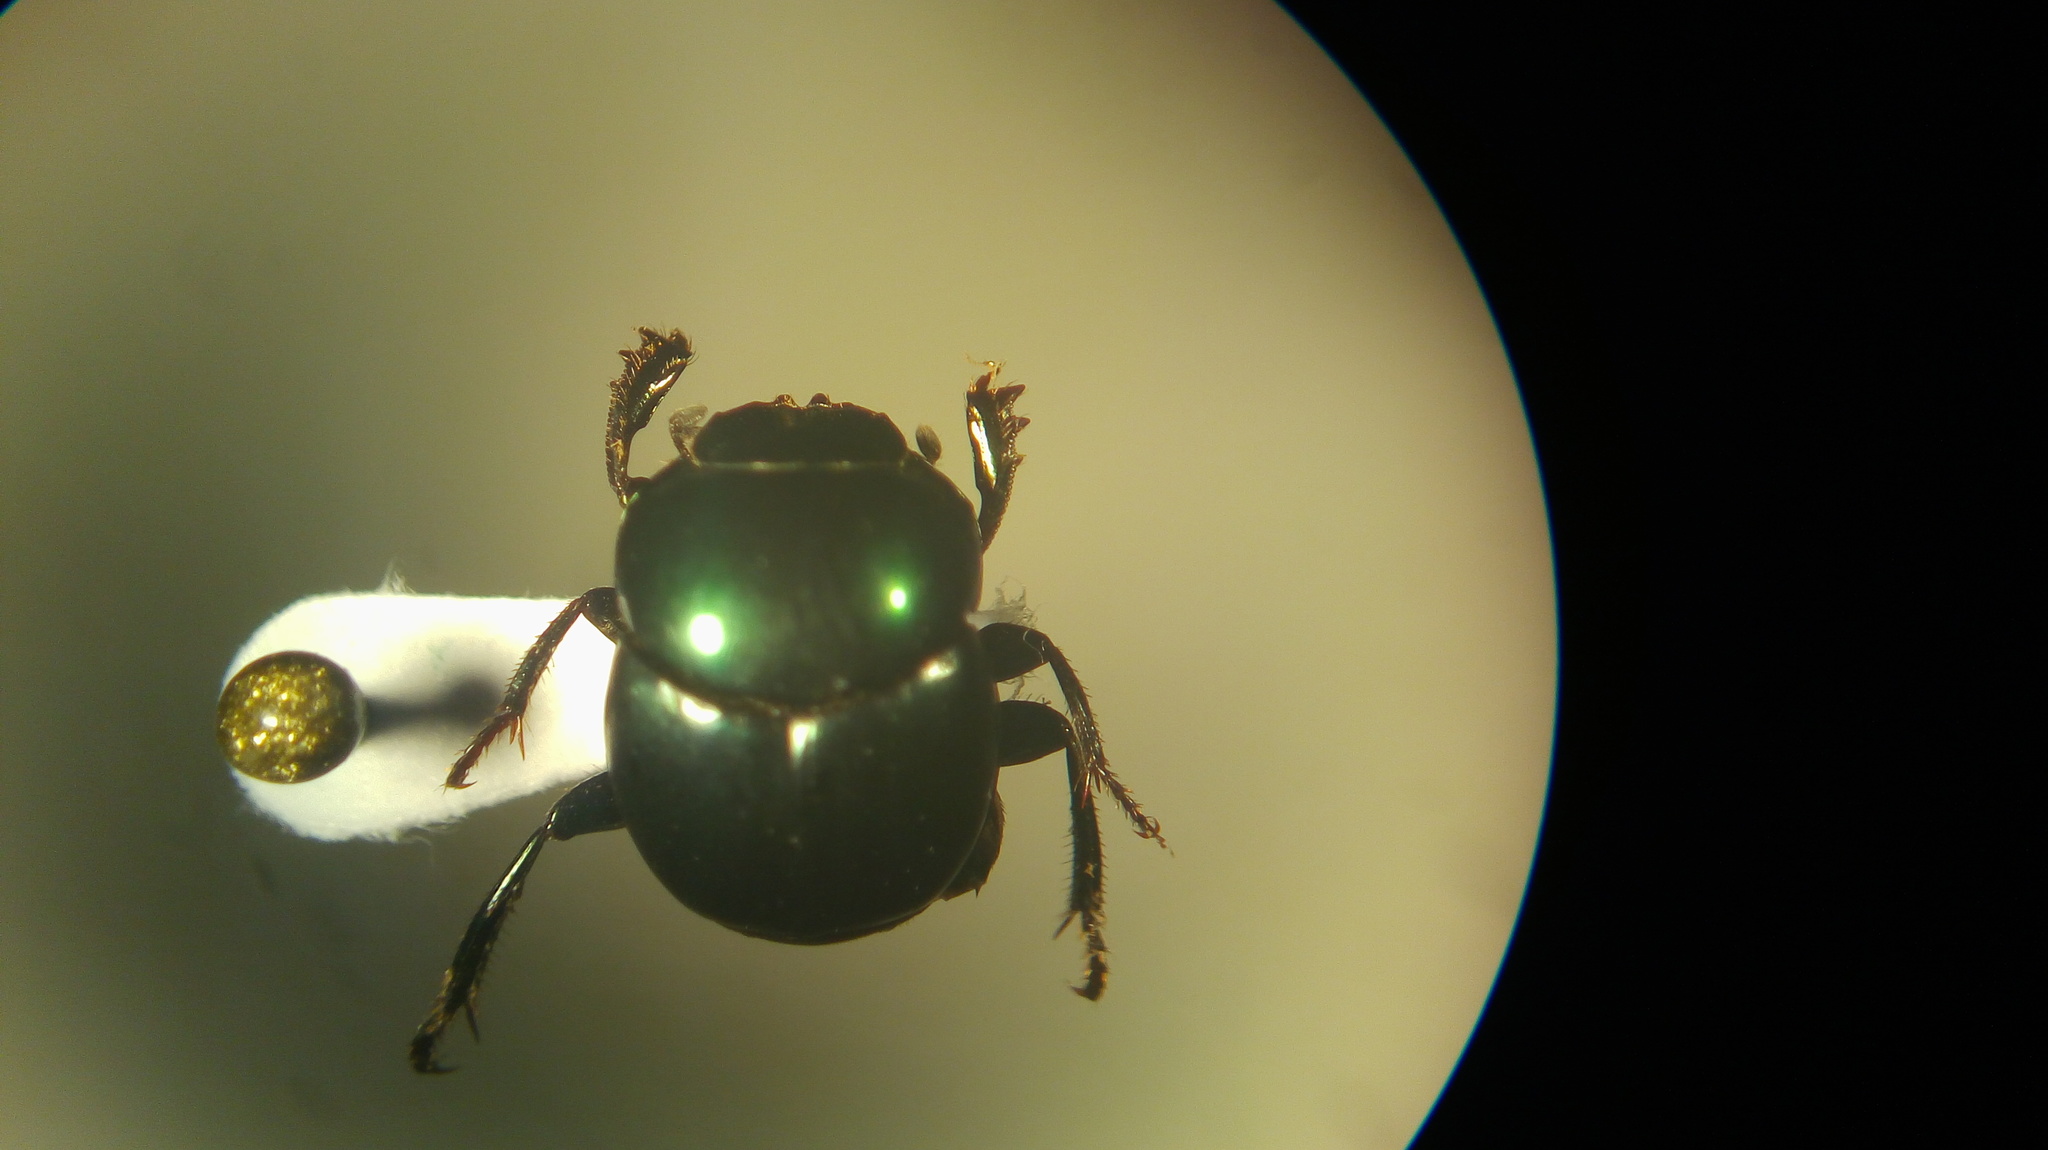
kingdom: Animalia
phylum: Arthropoda
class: Insecta
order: Coleoptera
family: Scarabaeidae
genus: Canthon
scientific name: Canthon leechi
